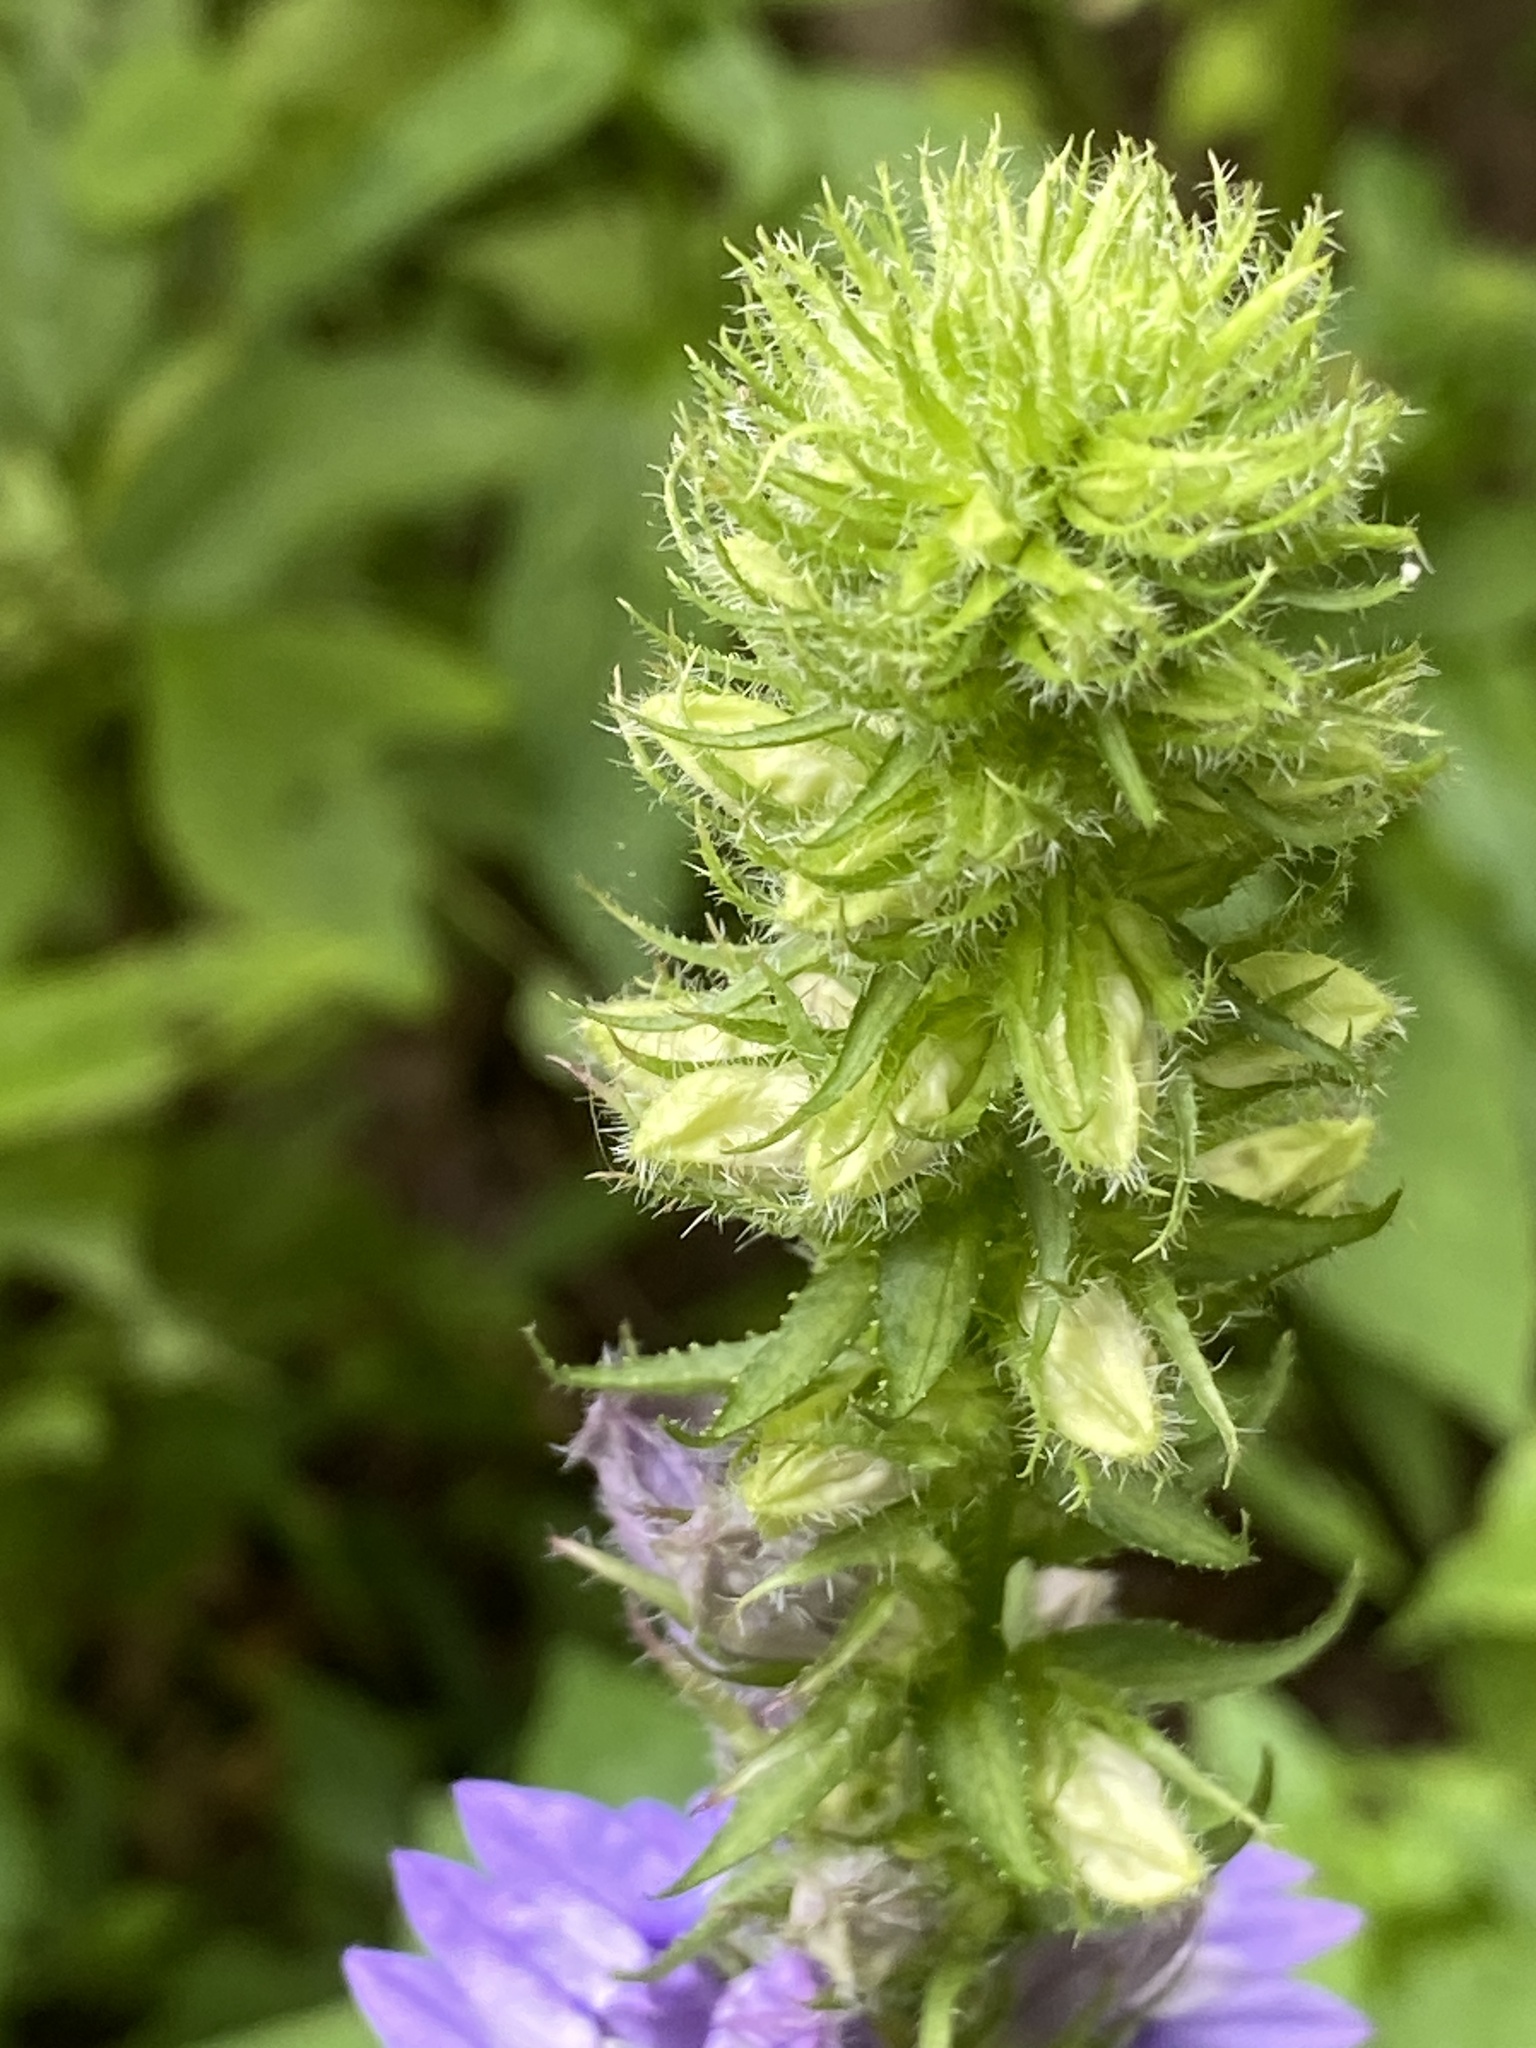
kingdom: Plantae
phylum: Tracheophyta
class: Magnoliopsida
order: Asterales
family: Campanulaceae
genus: Lobelia
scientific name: Lobelia siphilitica
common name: Great lobelia
